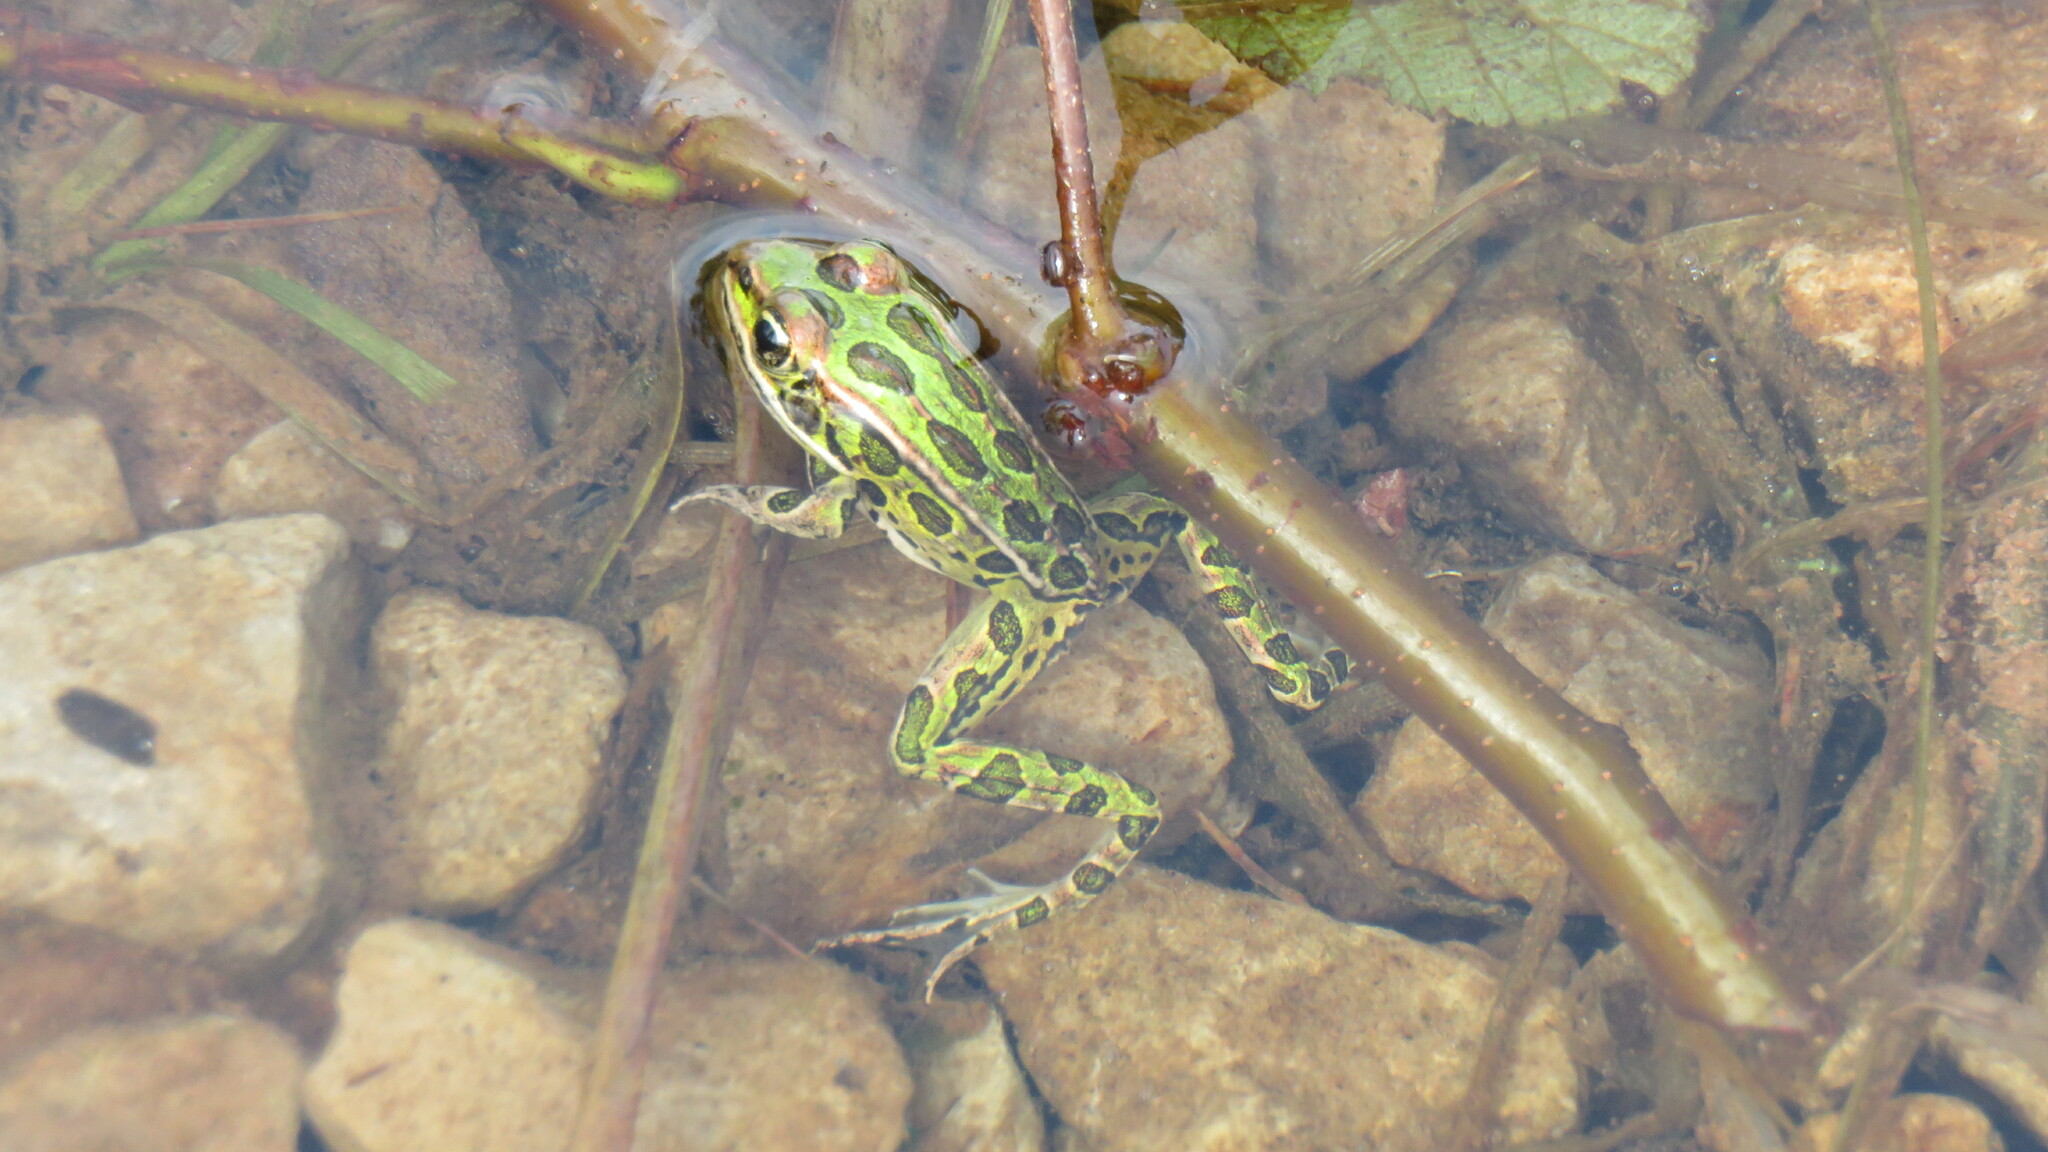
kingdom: Animalia
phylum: Chordata
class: Amphibia
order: Anura
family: Ranidae
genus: Lithobates
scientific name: Lithobates pipiens
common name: Northern leopard frog
